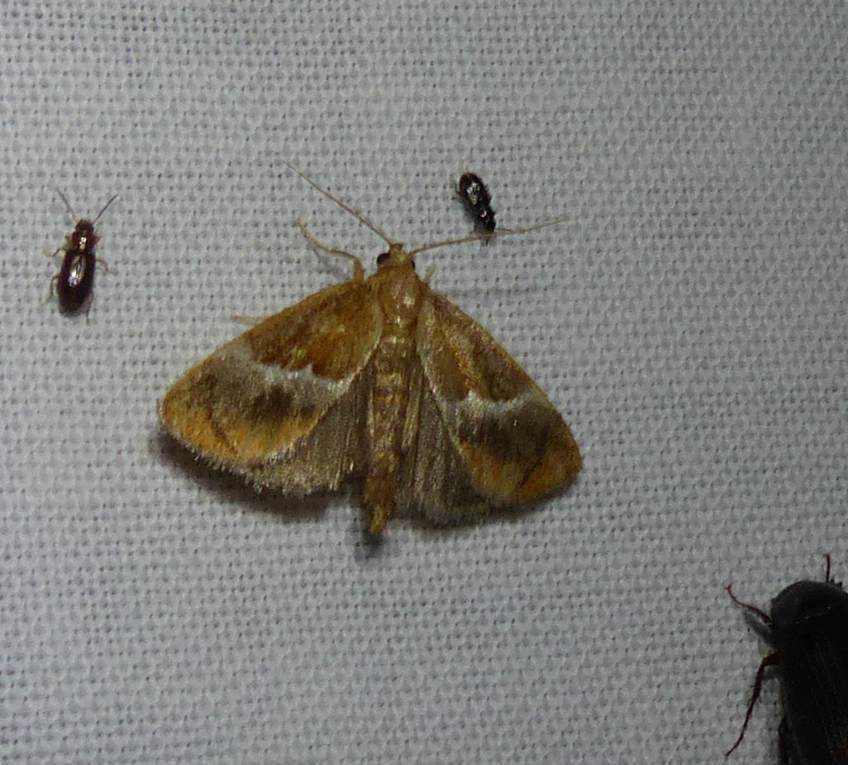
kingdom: Animalia
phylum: Arthropoda
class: Insecta
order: Lepidoptera
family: Limacodidae
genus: Lithacodes
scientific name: Lithacodes fasciola
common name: Yellow-shouldered slug moth
